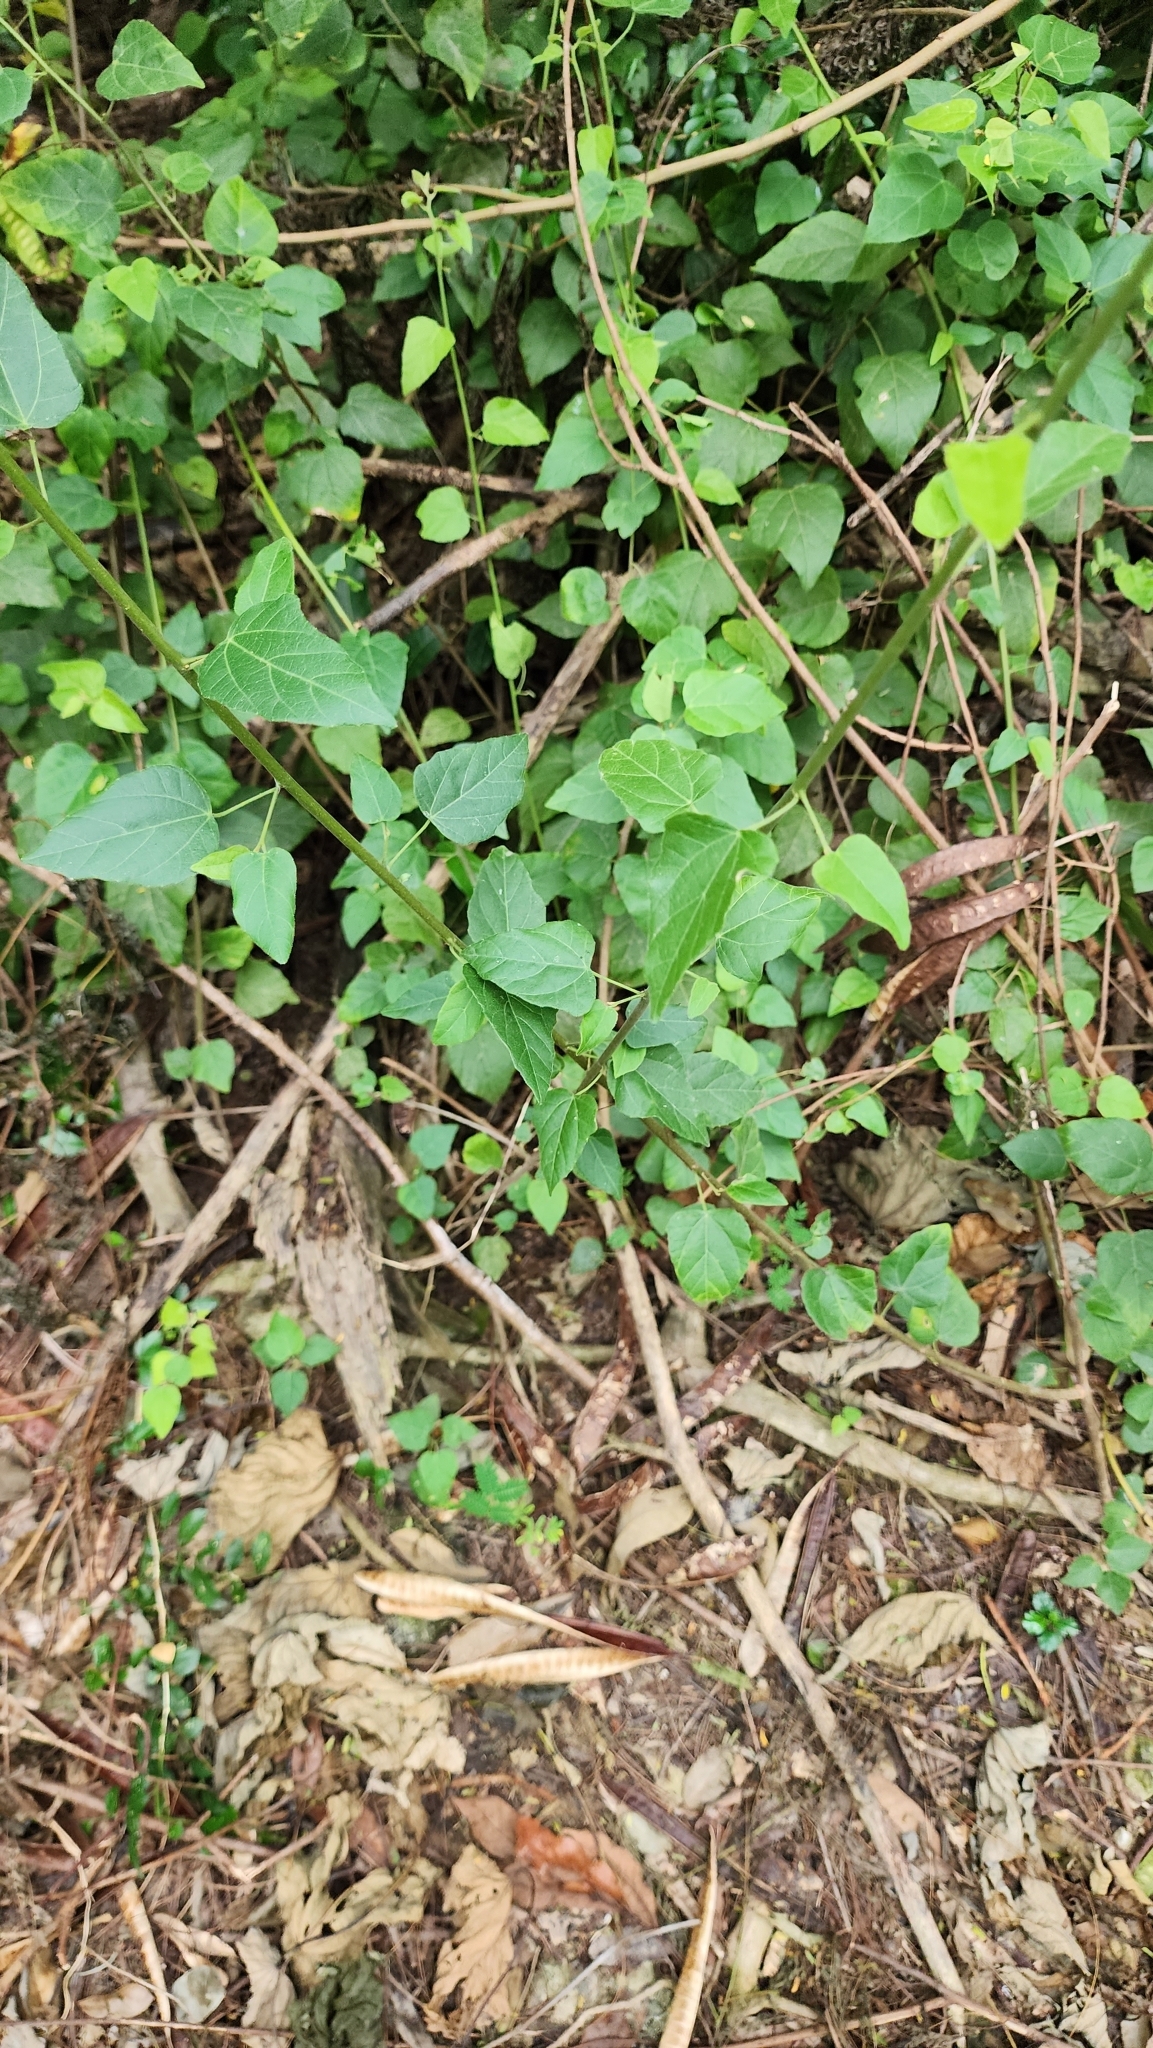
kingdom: Plantae
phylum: Tracheophyta
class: Magnoliopsida
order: Malpighiales
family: Euphorbiaceae
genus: Mallotus
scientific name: Mallotus repandus
